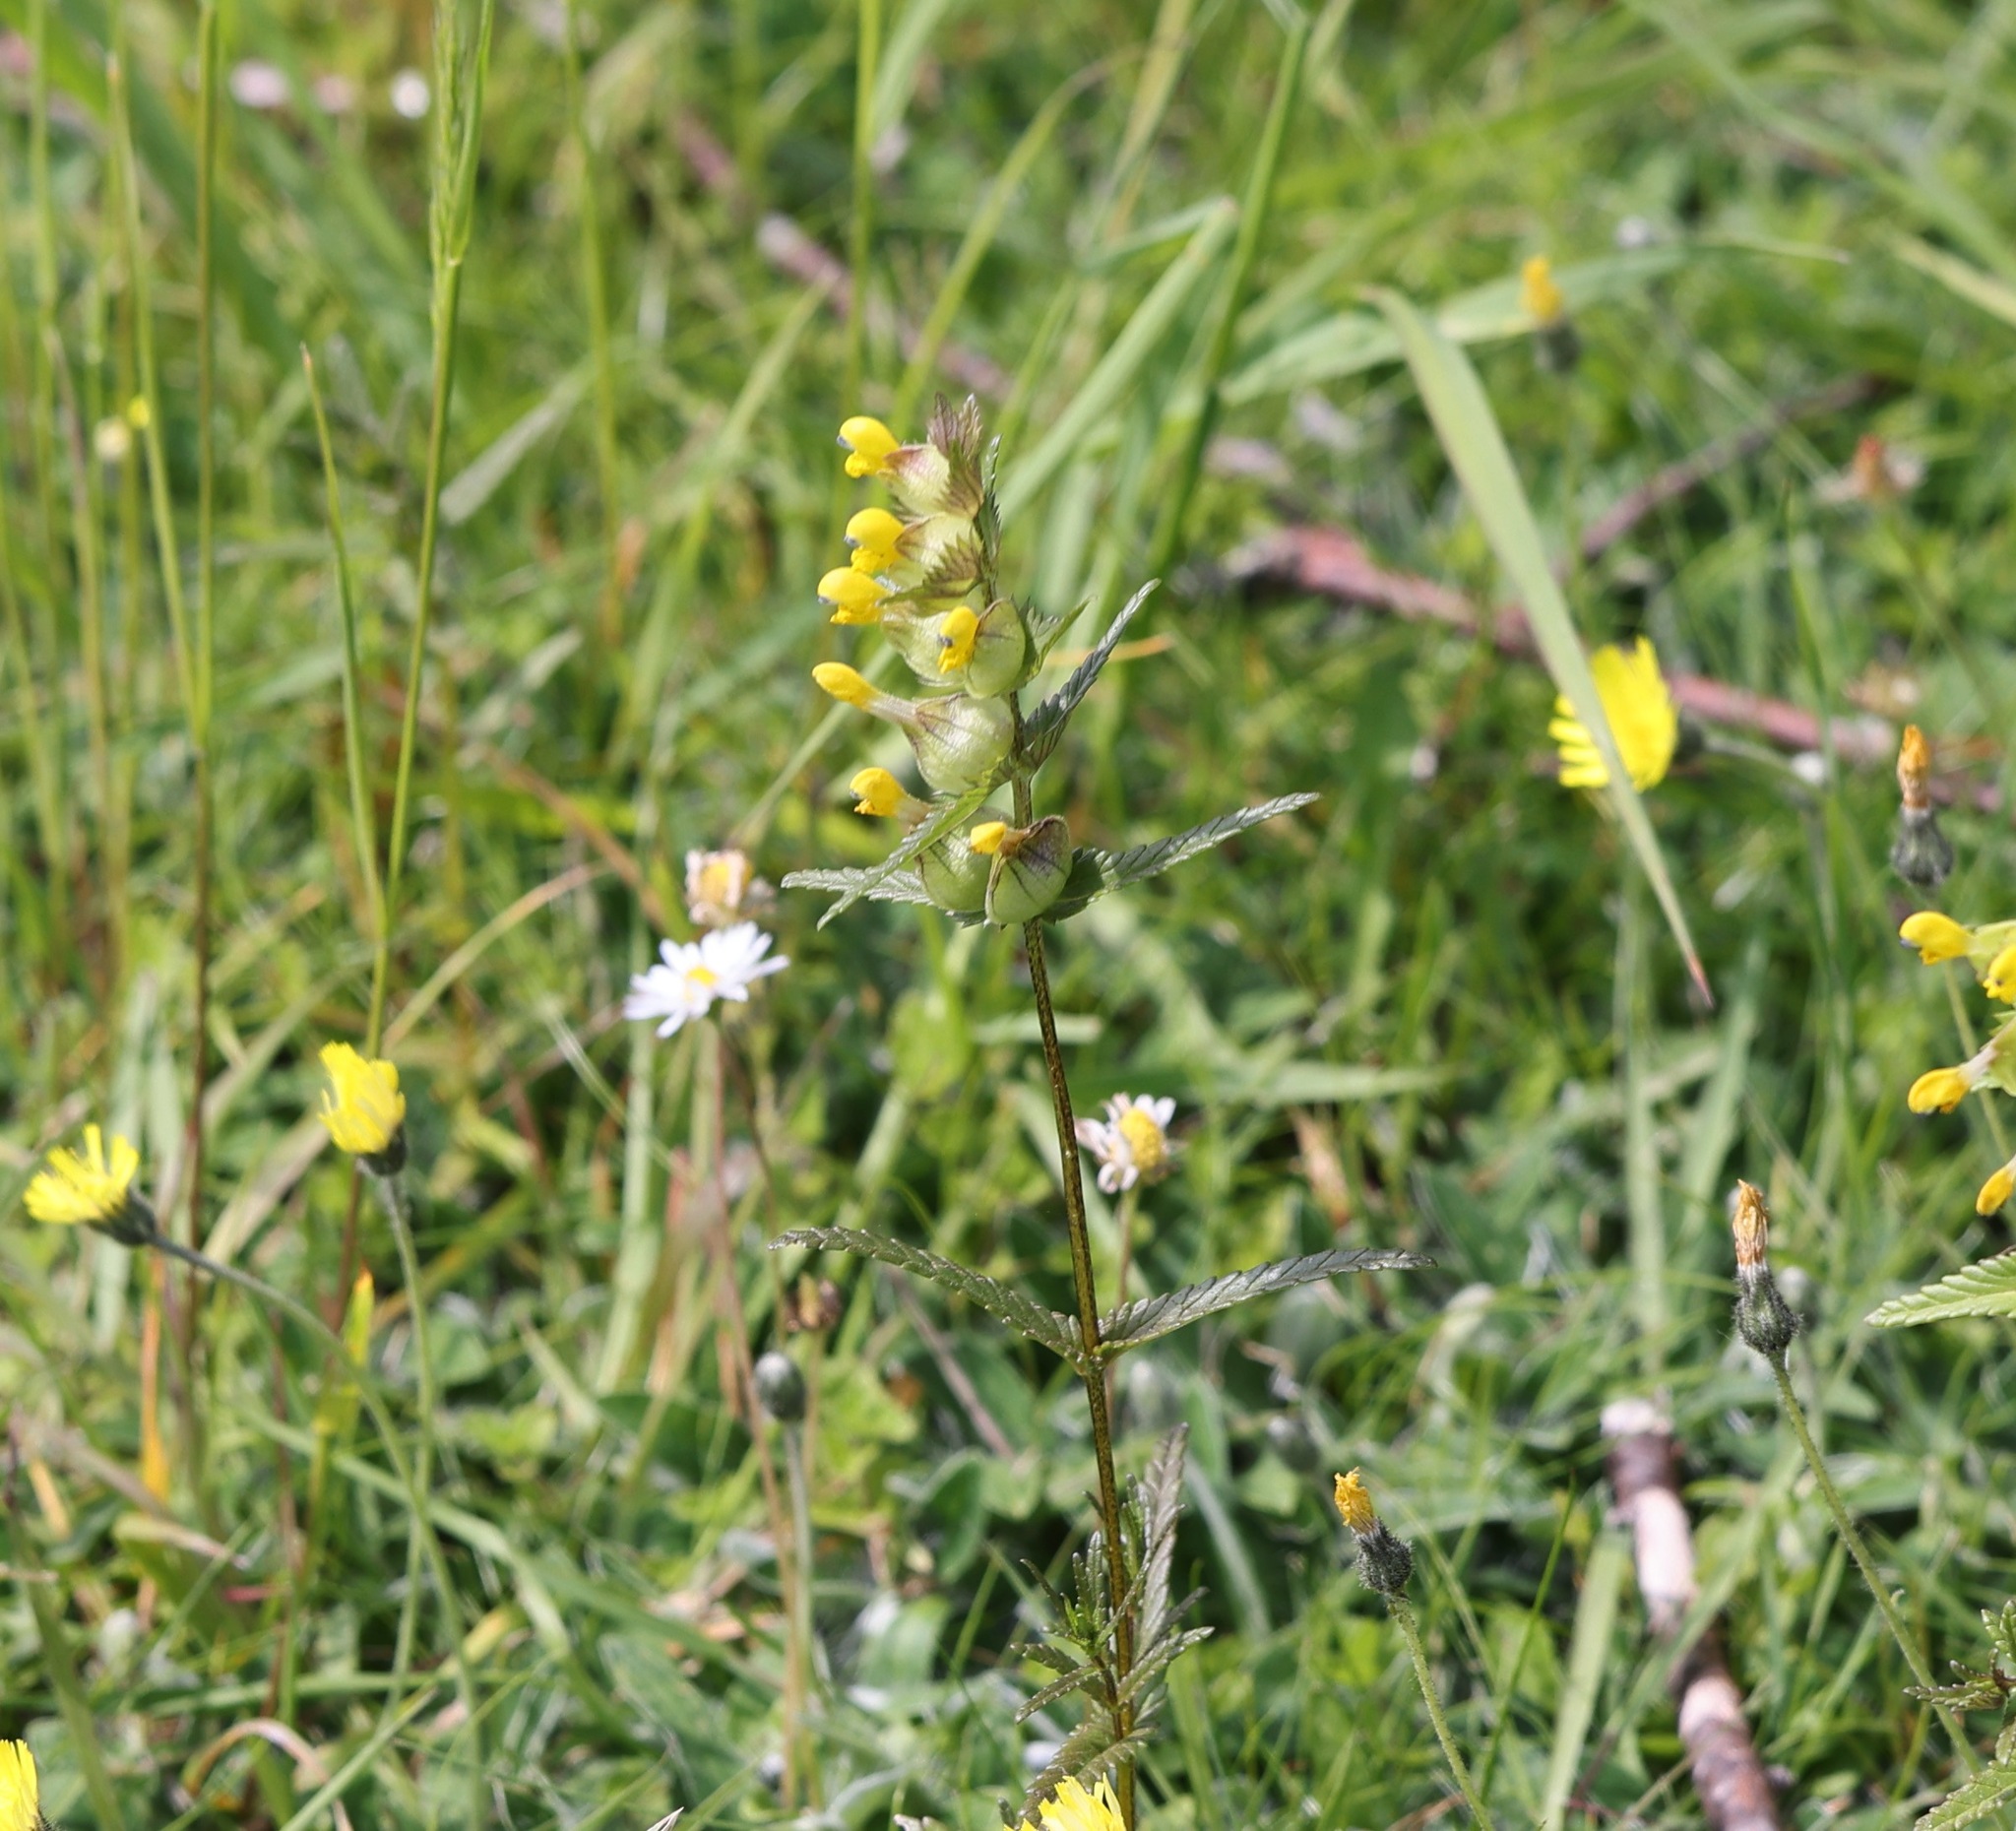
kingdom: Plantae
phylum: Tracheophyta
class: Magnoliopsida
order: Lamiales
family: Orobanchaceae
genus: Rhinanthus
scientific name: Rhinanthus minor
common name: Yellow-rattle
